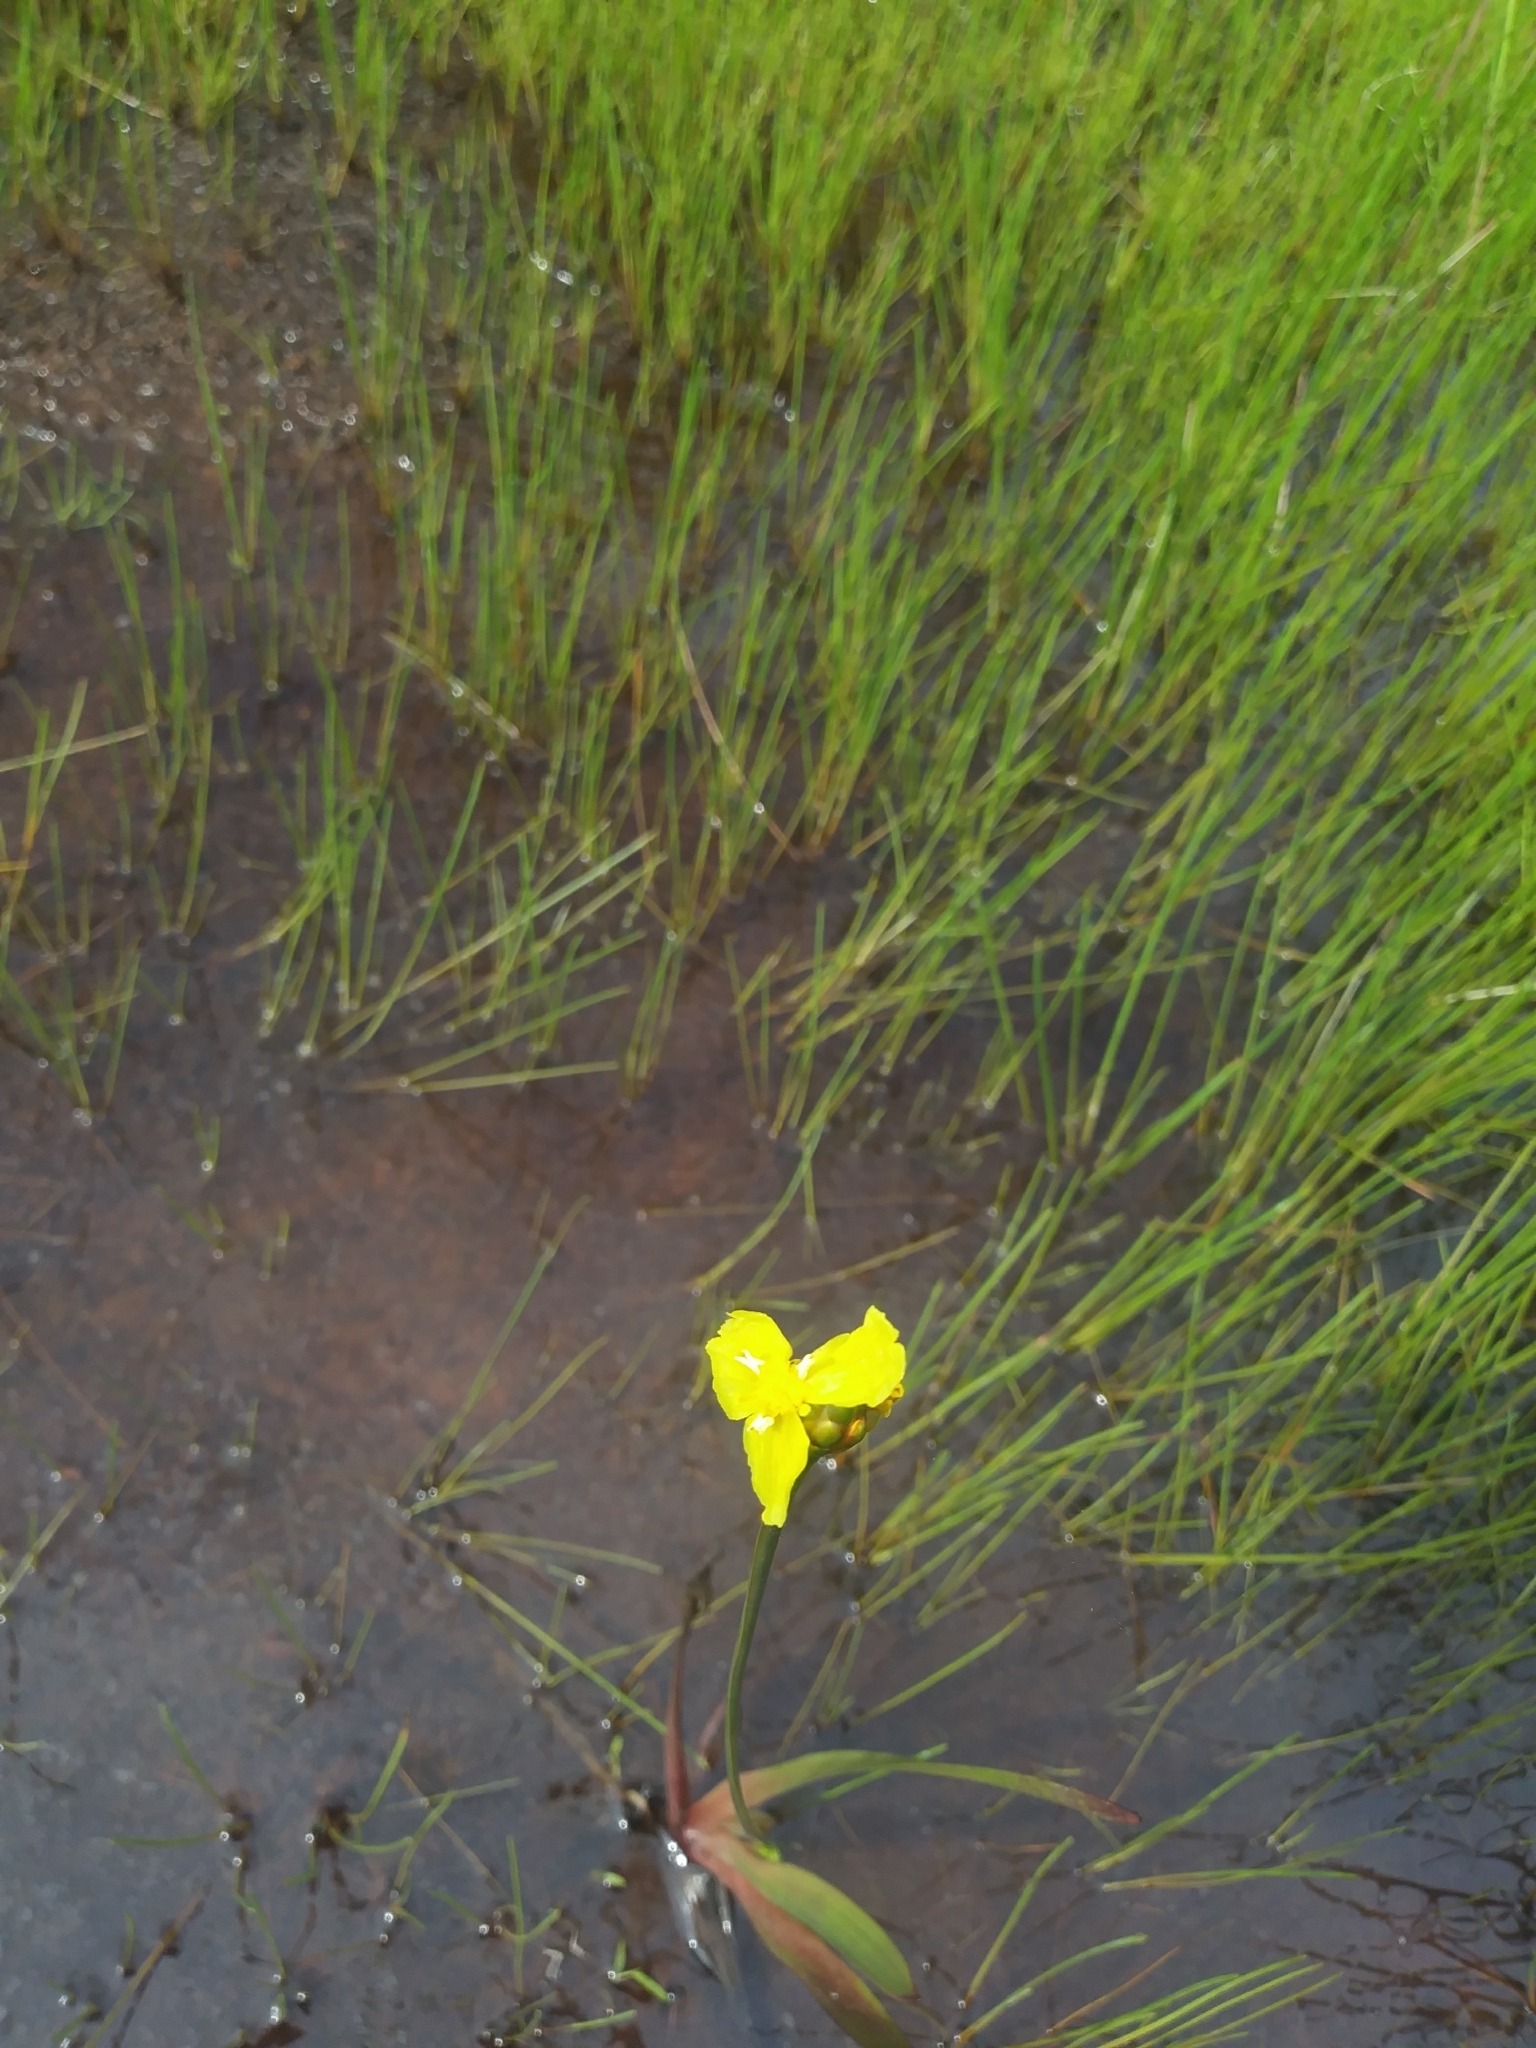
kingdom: Plantae
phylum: Tracheophyta
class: Liliopsida
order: Poales
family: Xyridaceae
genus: Xyris
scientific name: Xyris difformis
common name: Bog yellow-eyed-grass
